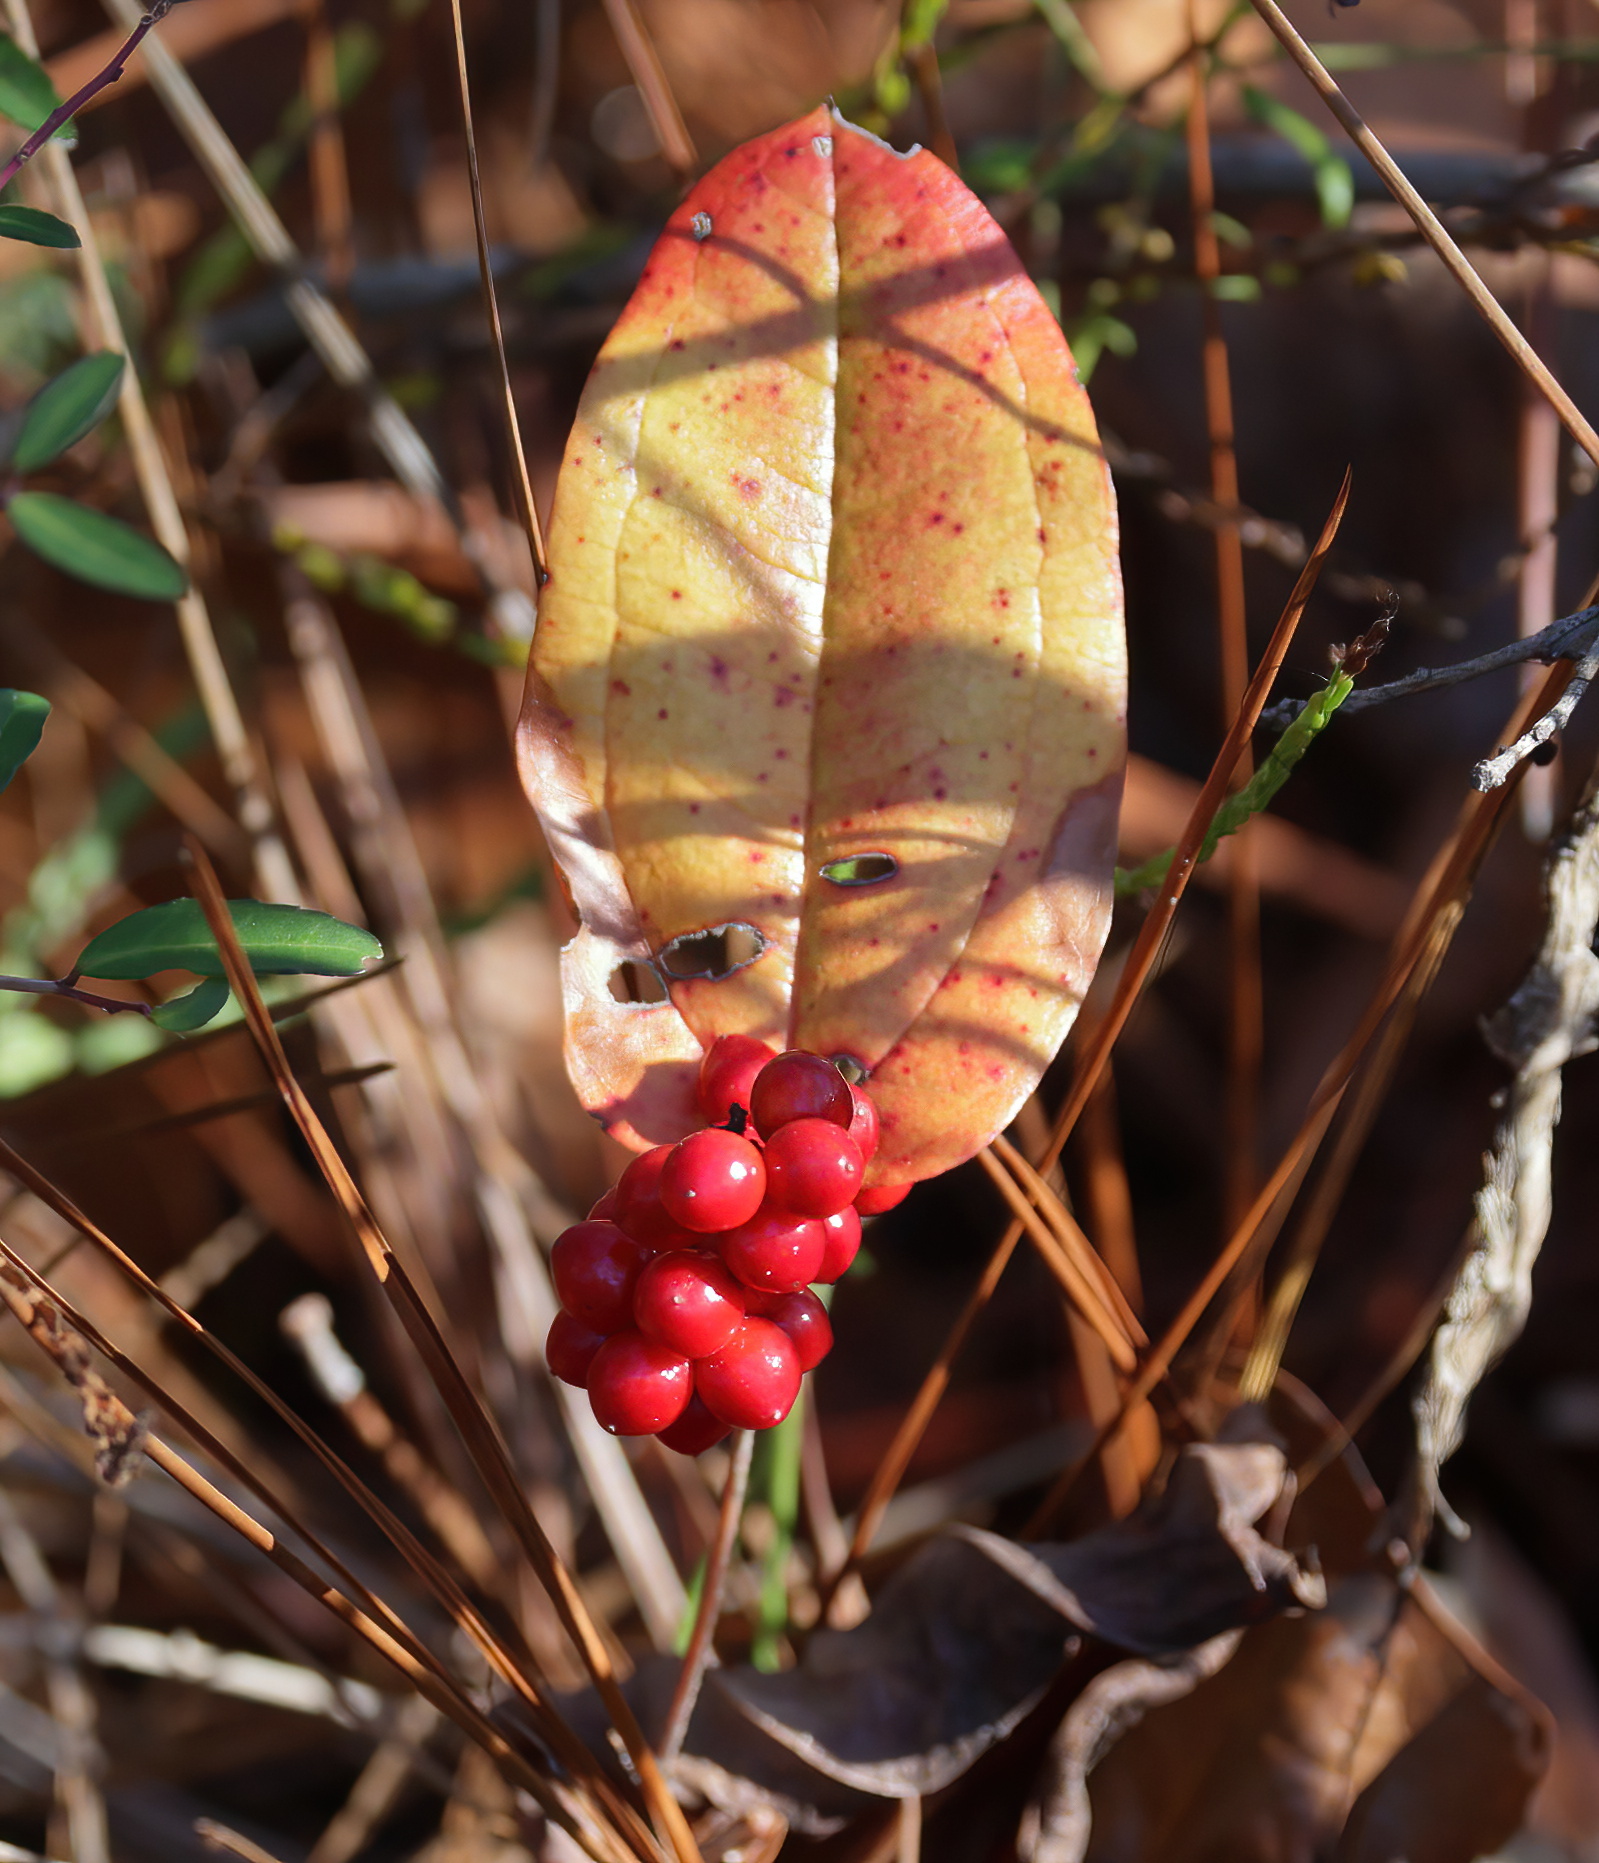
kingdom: Plantae
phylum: Tracheophyta
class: Liliopsida
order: Liliales
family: Smilacaceae
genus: Smilax
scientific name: Smilax pumila
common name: Sarsaparilla-vine
